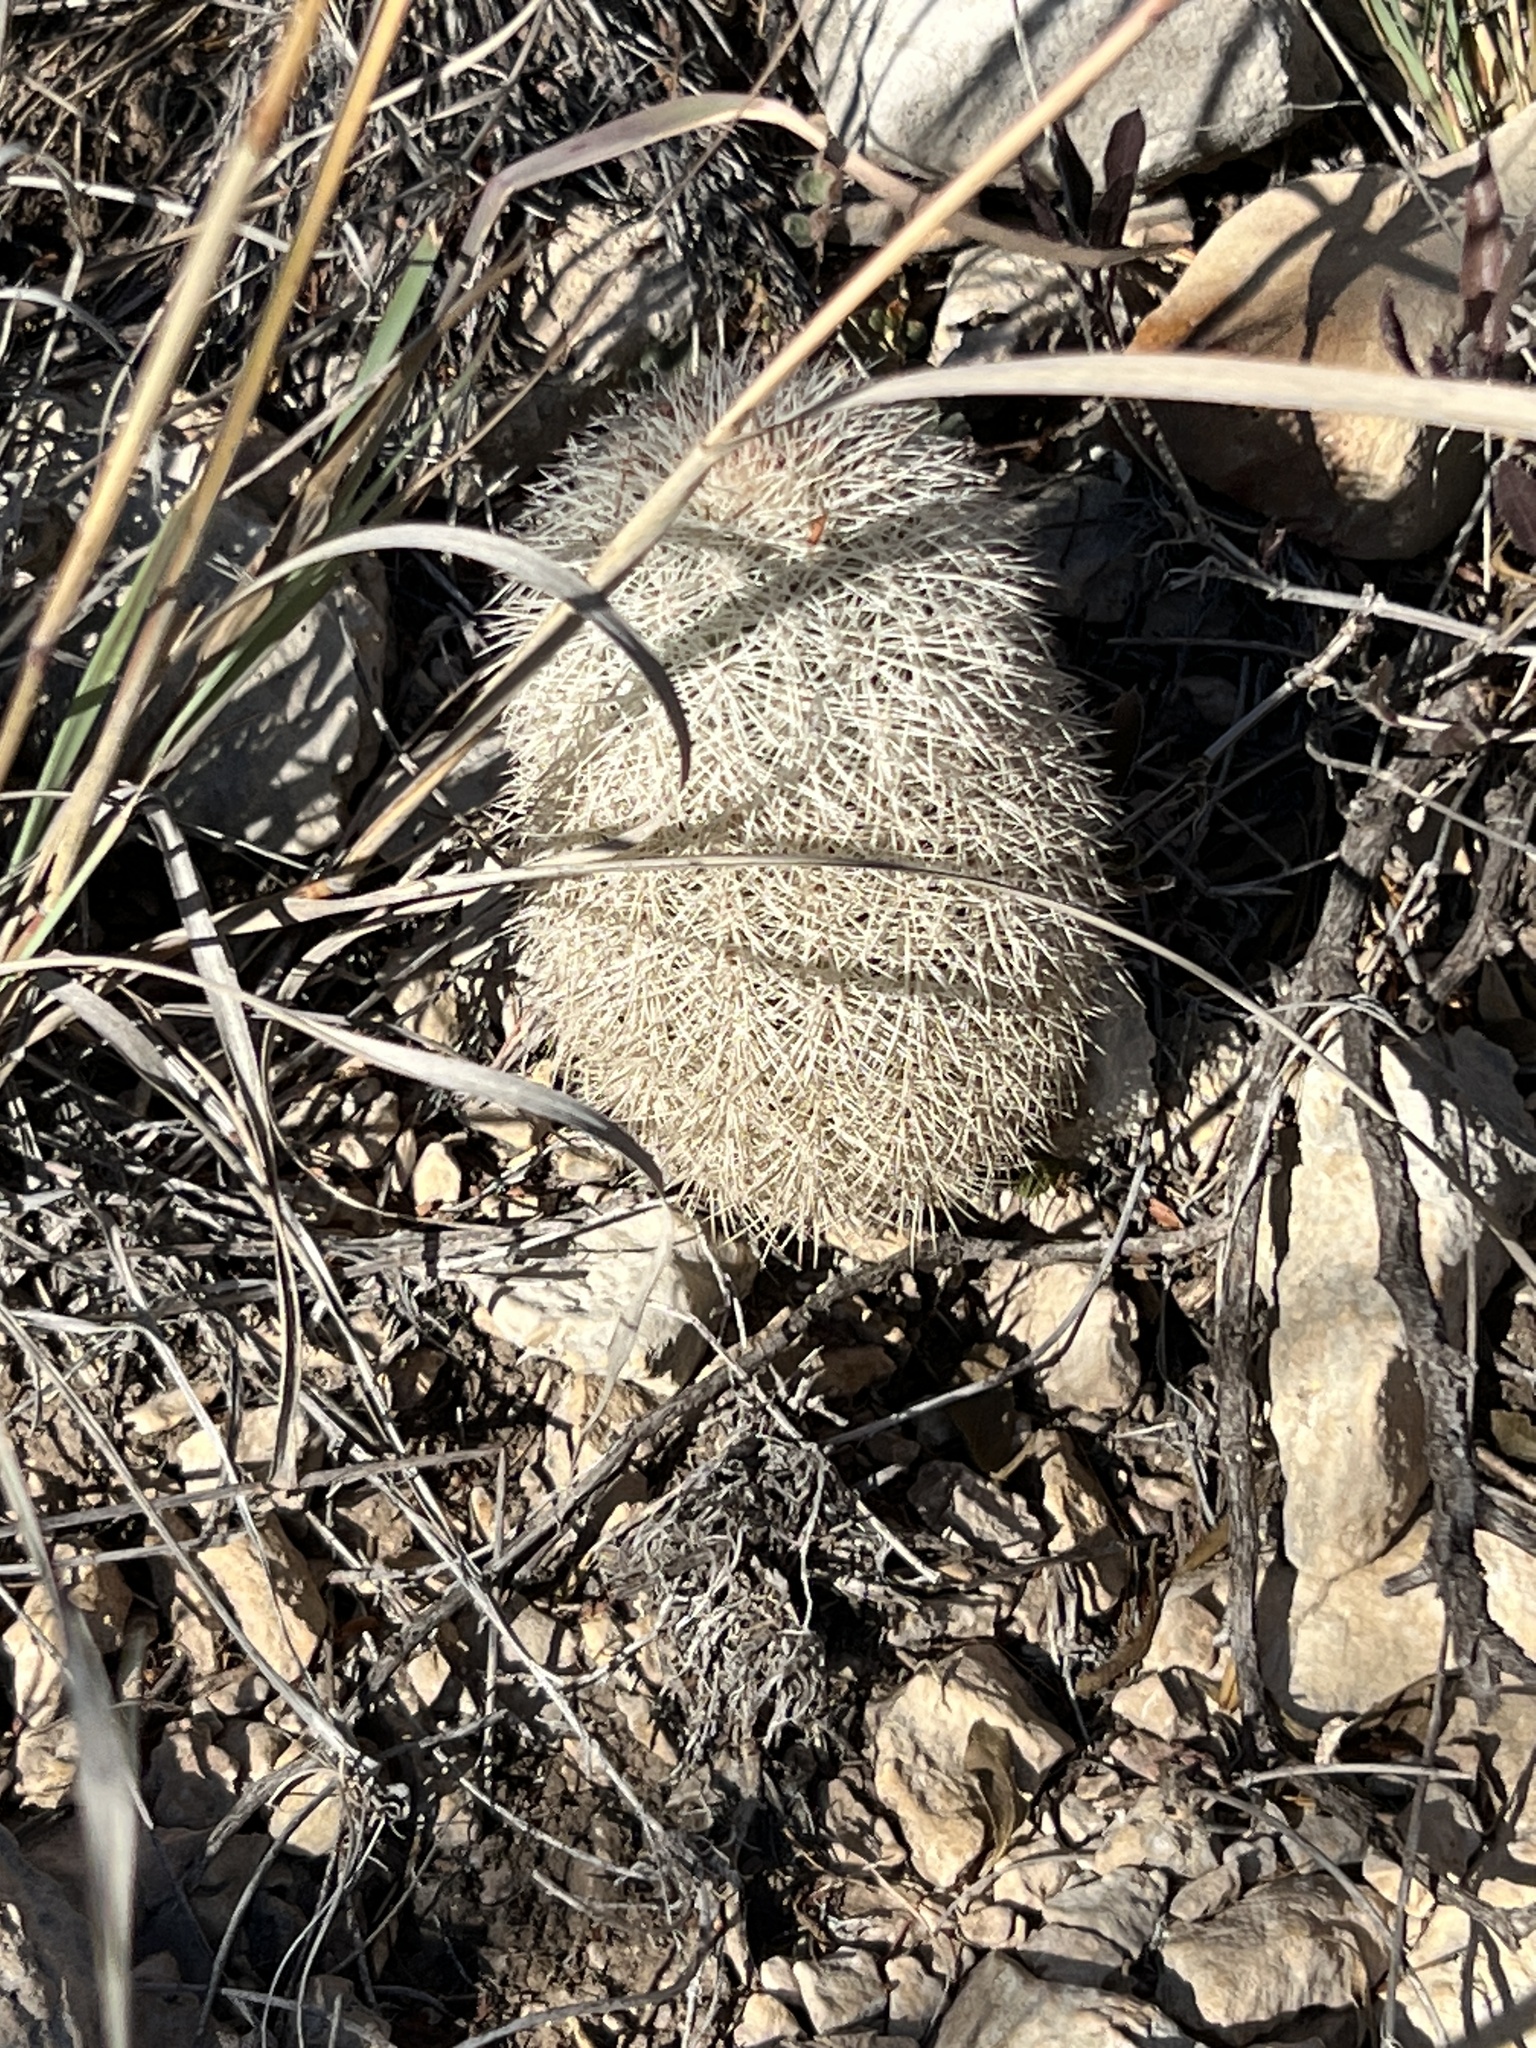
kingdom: Plantae
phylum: Tracheophyta
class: Magnoliopsida
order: Caryophyllales
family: Cactaceae
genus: Echinocereus
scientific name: Echinocereus dasyacanthus
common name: Spiny hedgehog cactus
